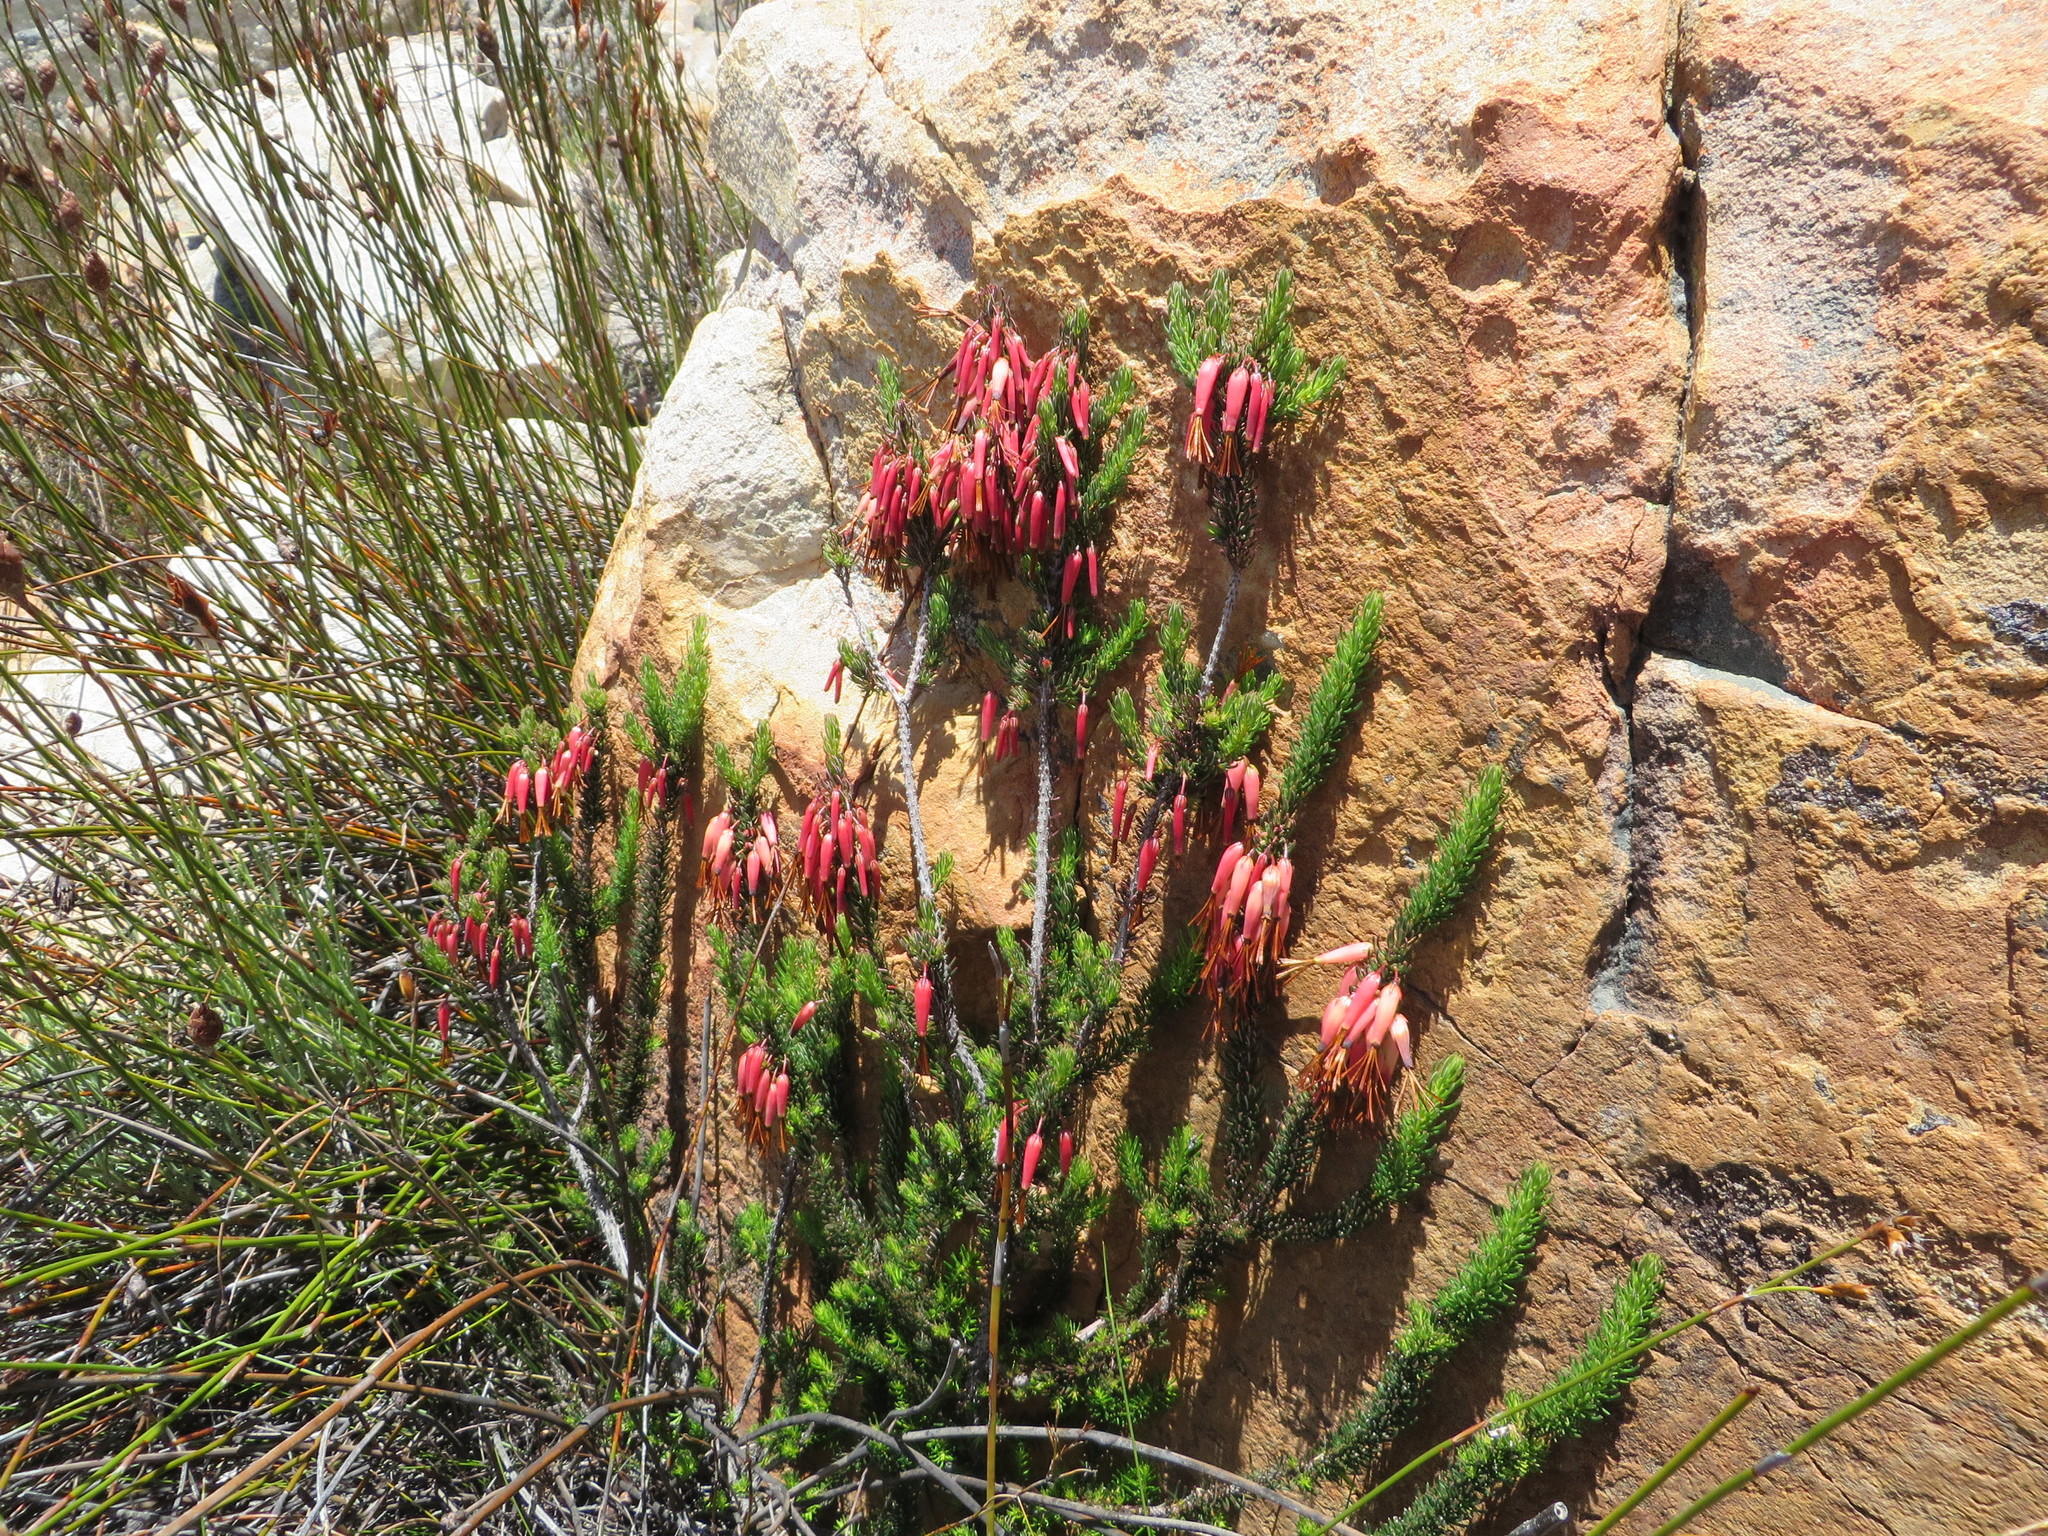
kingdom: Plantae
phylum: Tracheophyta
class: Magnoliopsida
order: Ericales
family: Ericaceae
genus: Erica
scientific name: Erica plukenetii
